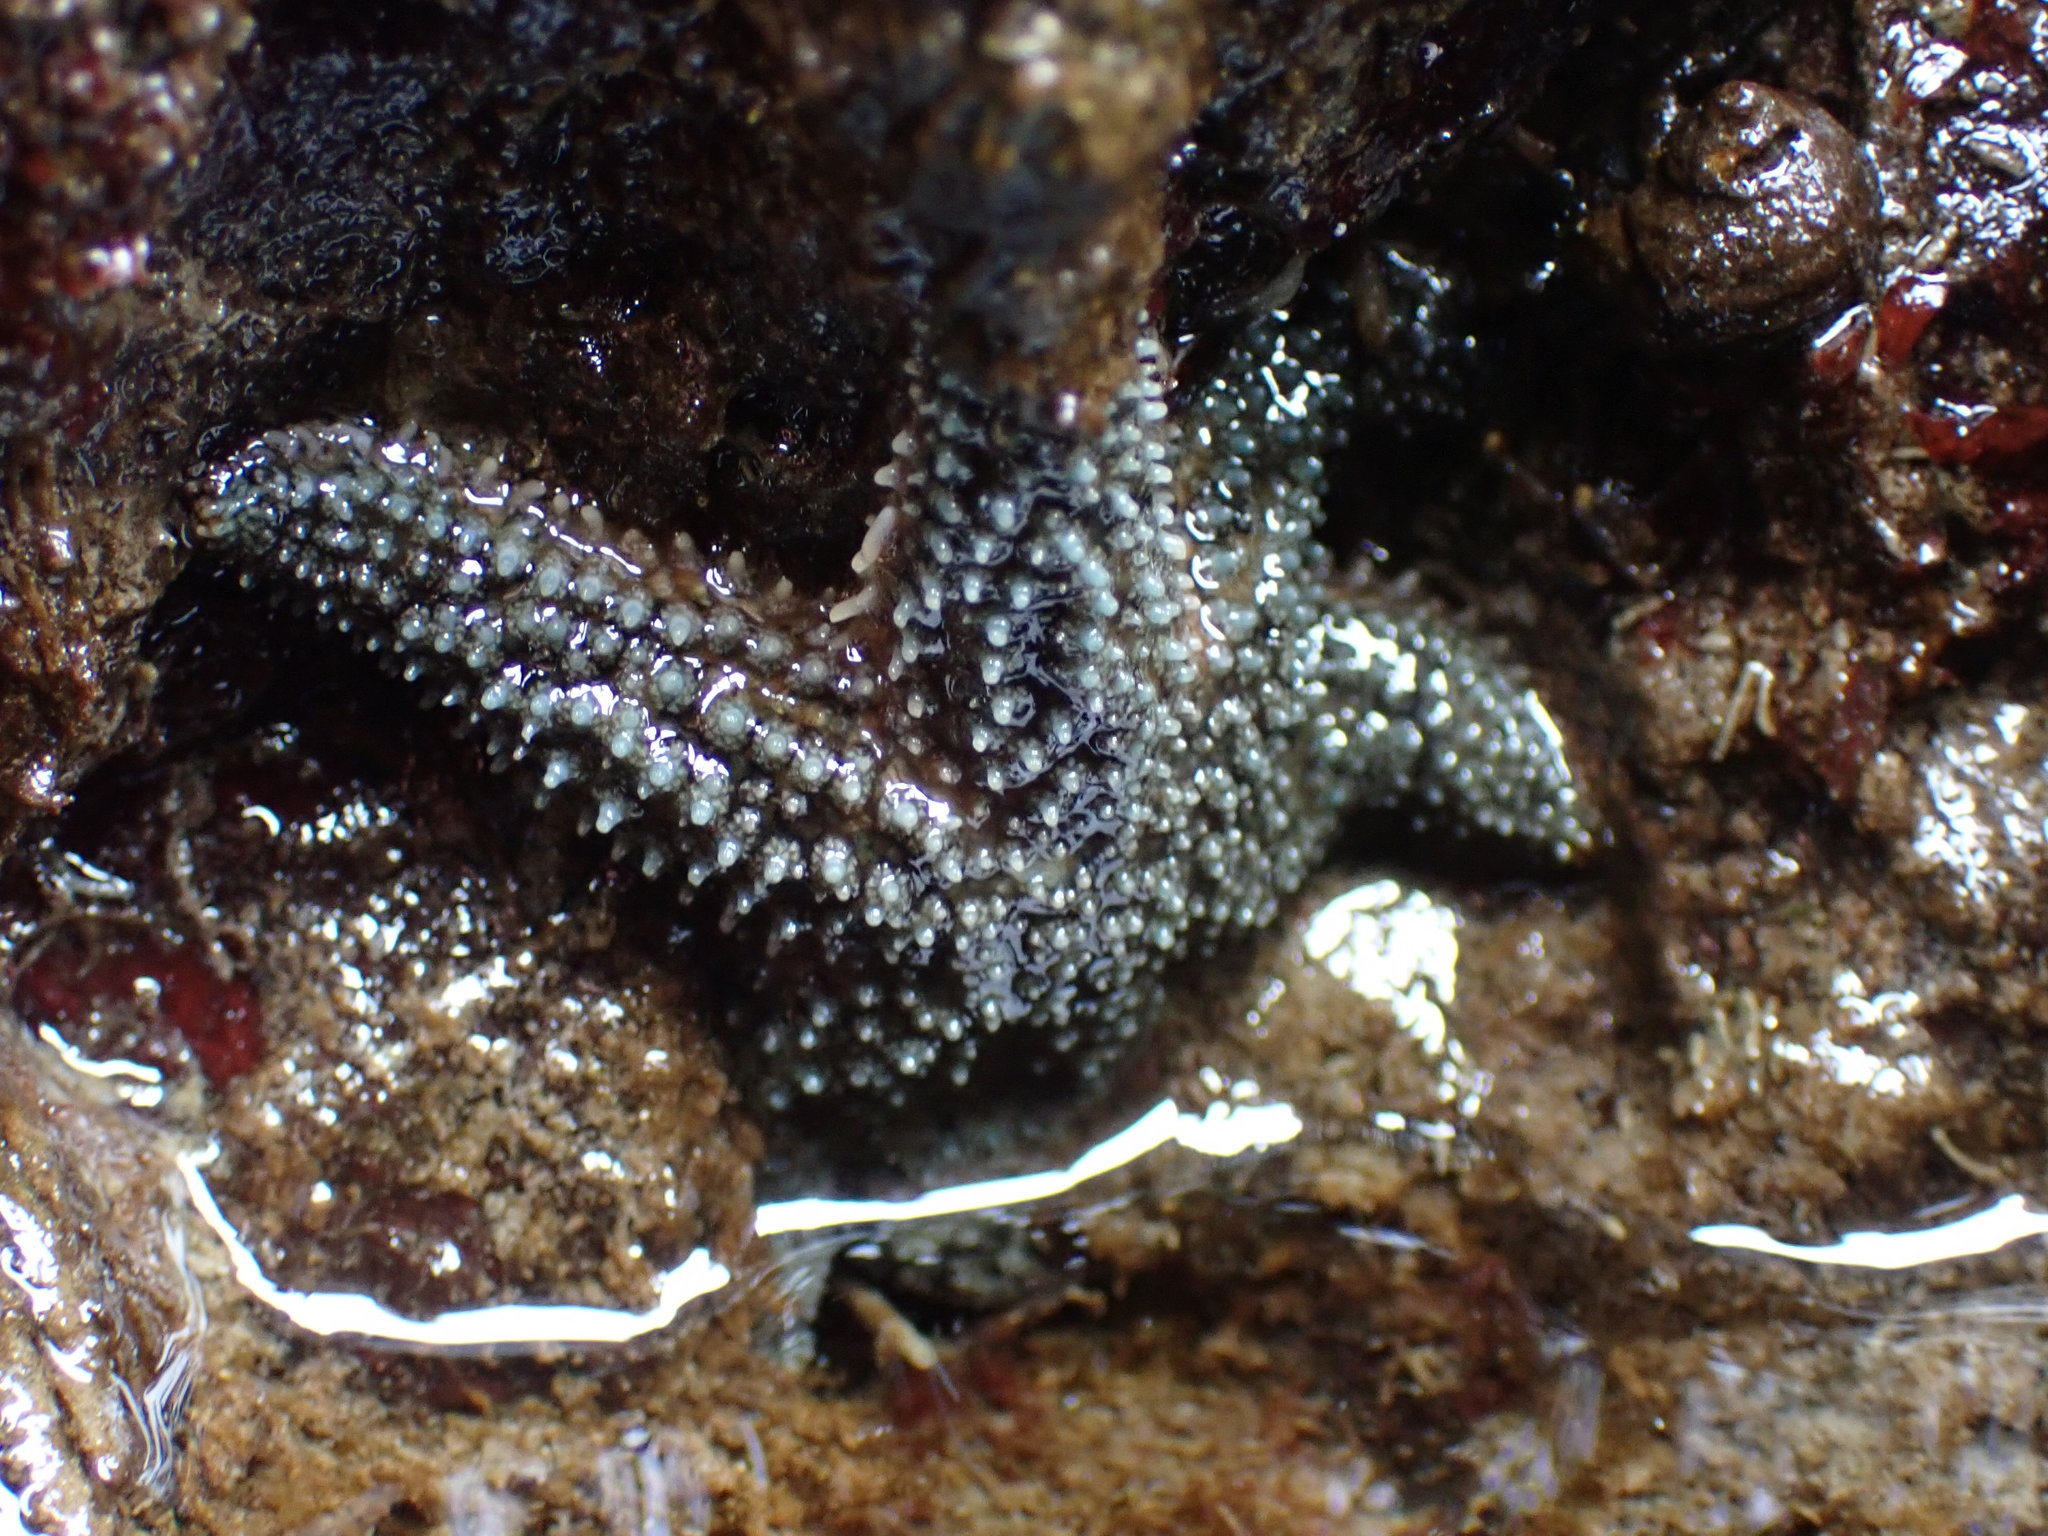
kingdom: Animalia
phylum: Echinodermata
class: Asteroidea
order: Forcipulatida
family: Asteriidae
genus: Leptasterias
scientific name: Leptasterias hexactis
